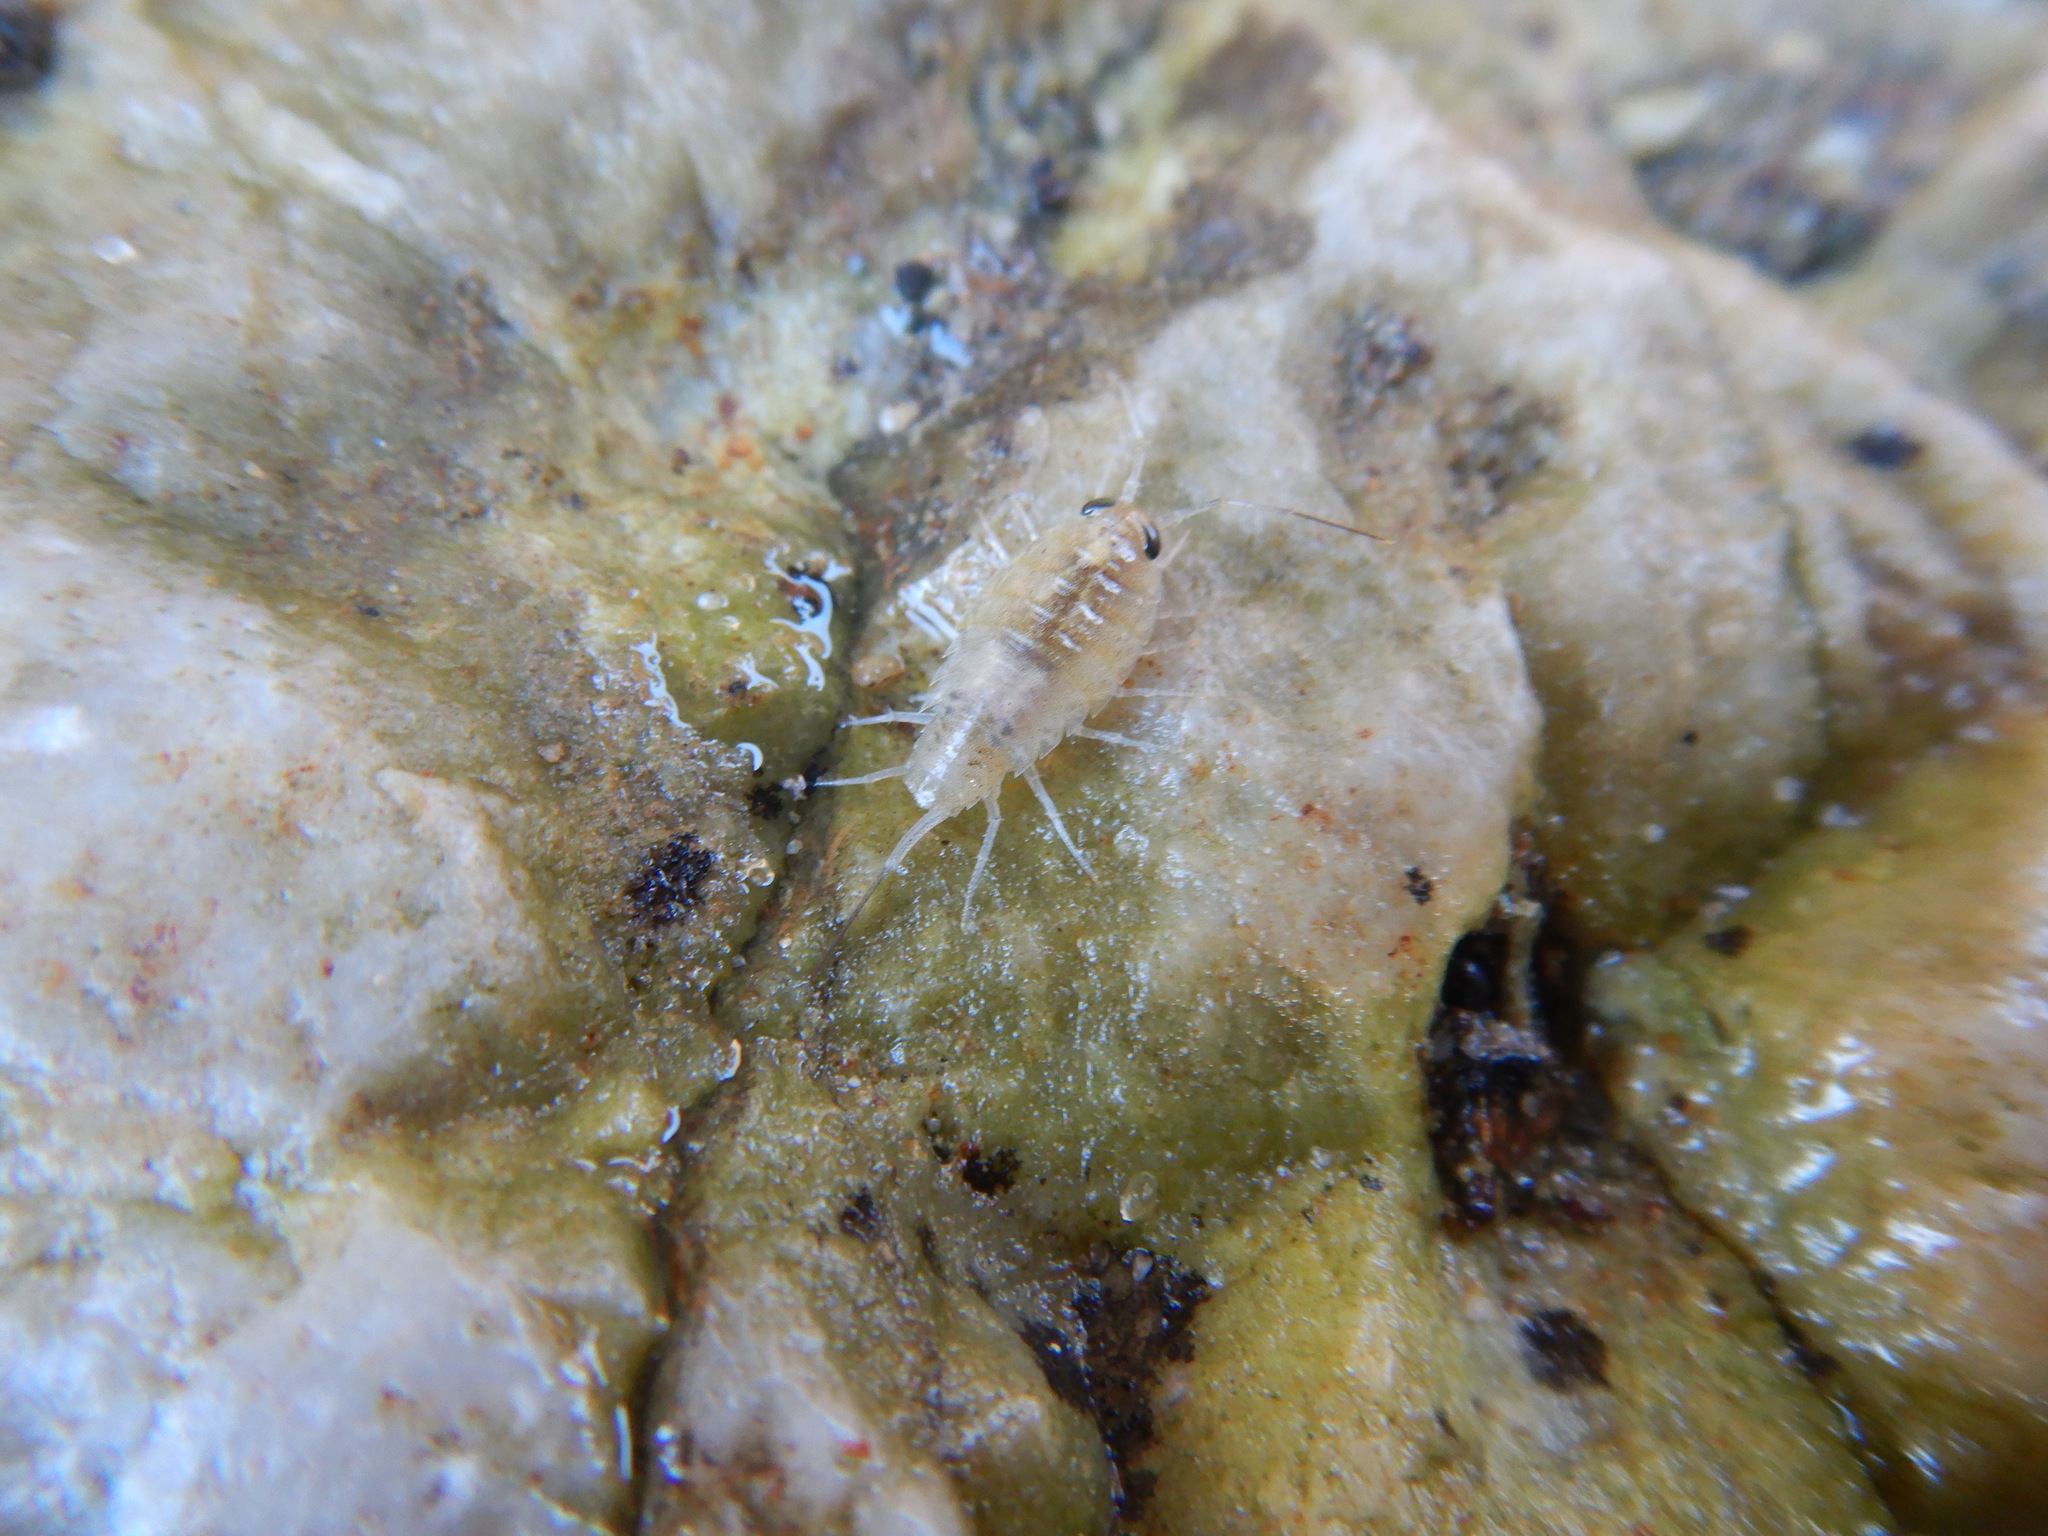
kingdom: Animalia
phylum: Arthropoda
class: Malacostraca
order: Isopoda
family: Ligiidae
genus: Ligia
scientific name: Ligia italica
